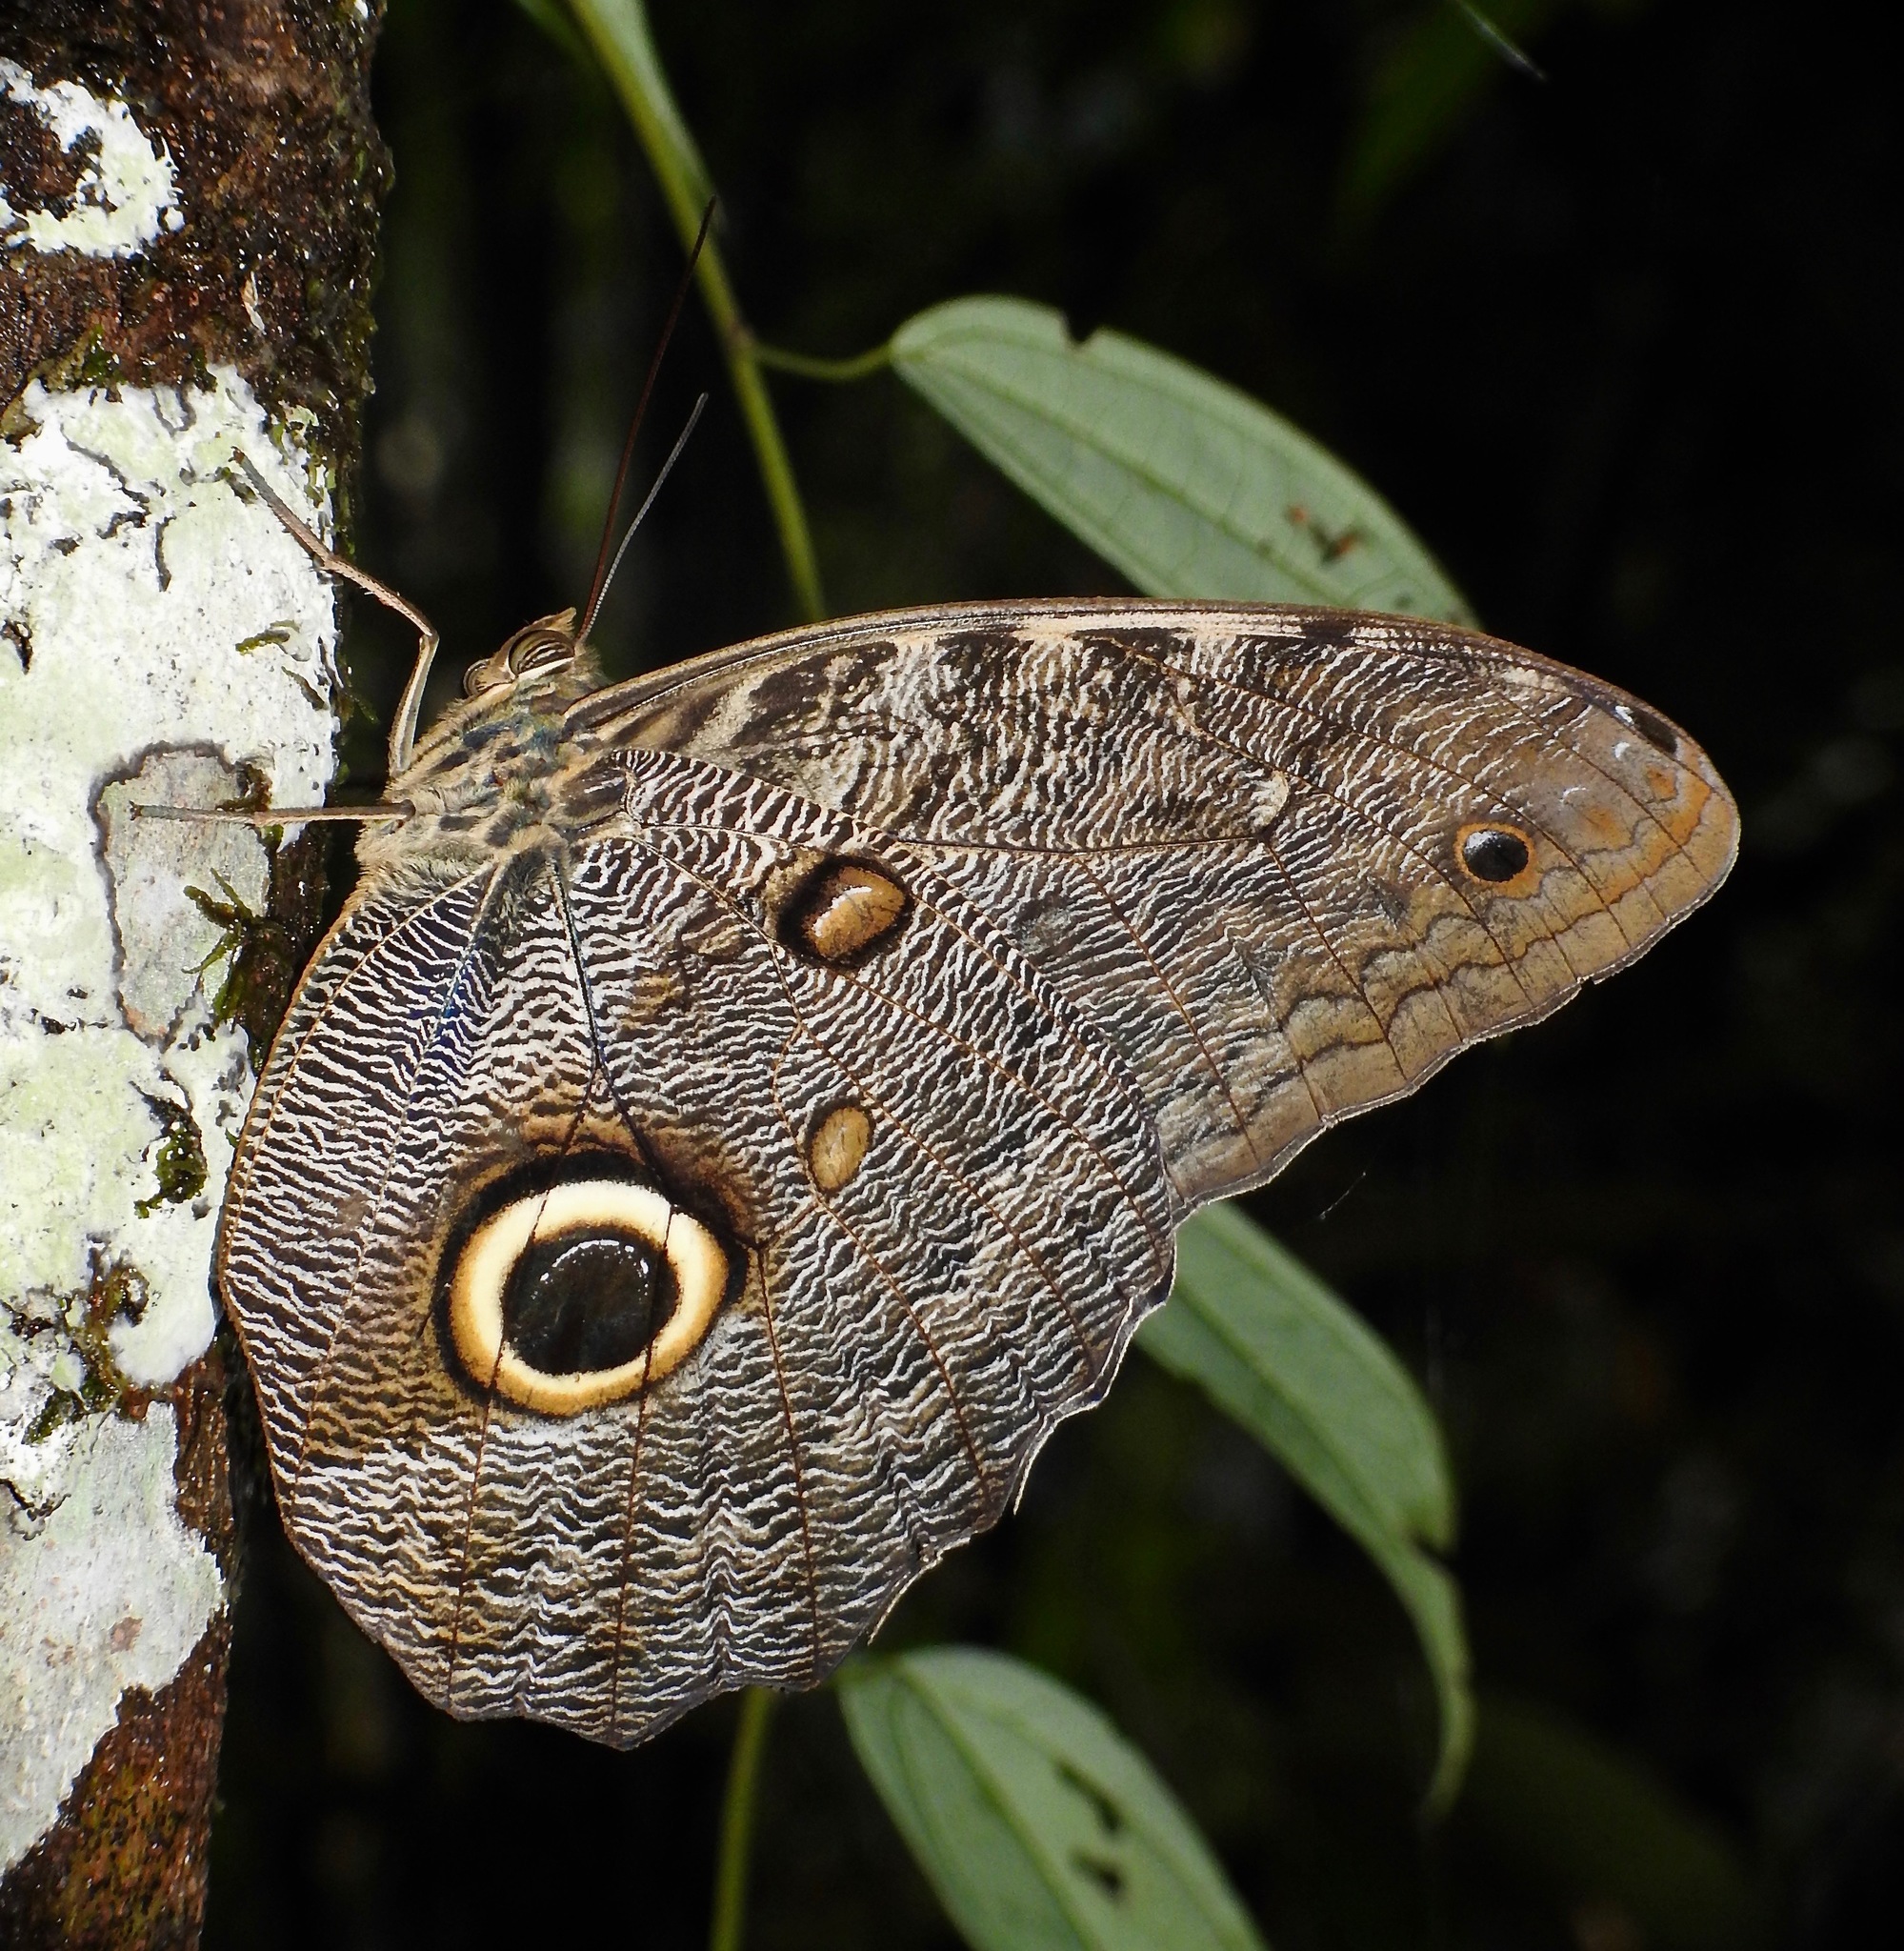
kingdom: Animalia
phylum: Arthropoda
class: Insecta
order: Lepidoptera
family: Nymphalidae
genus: Caligo
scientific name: Caligo eurilochus
